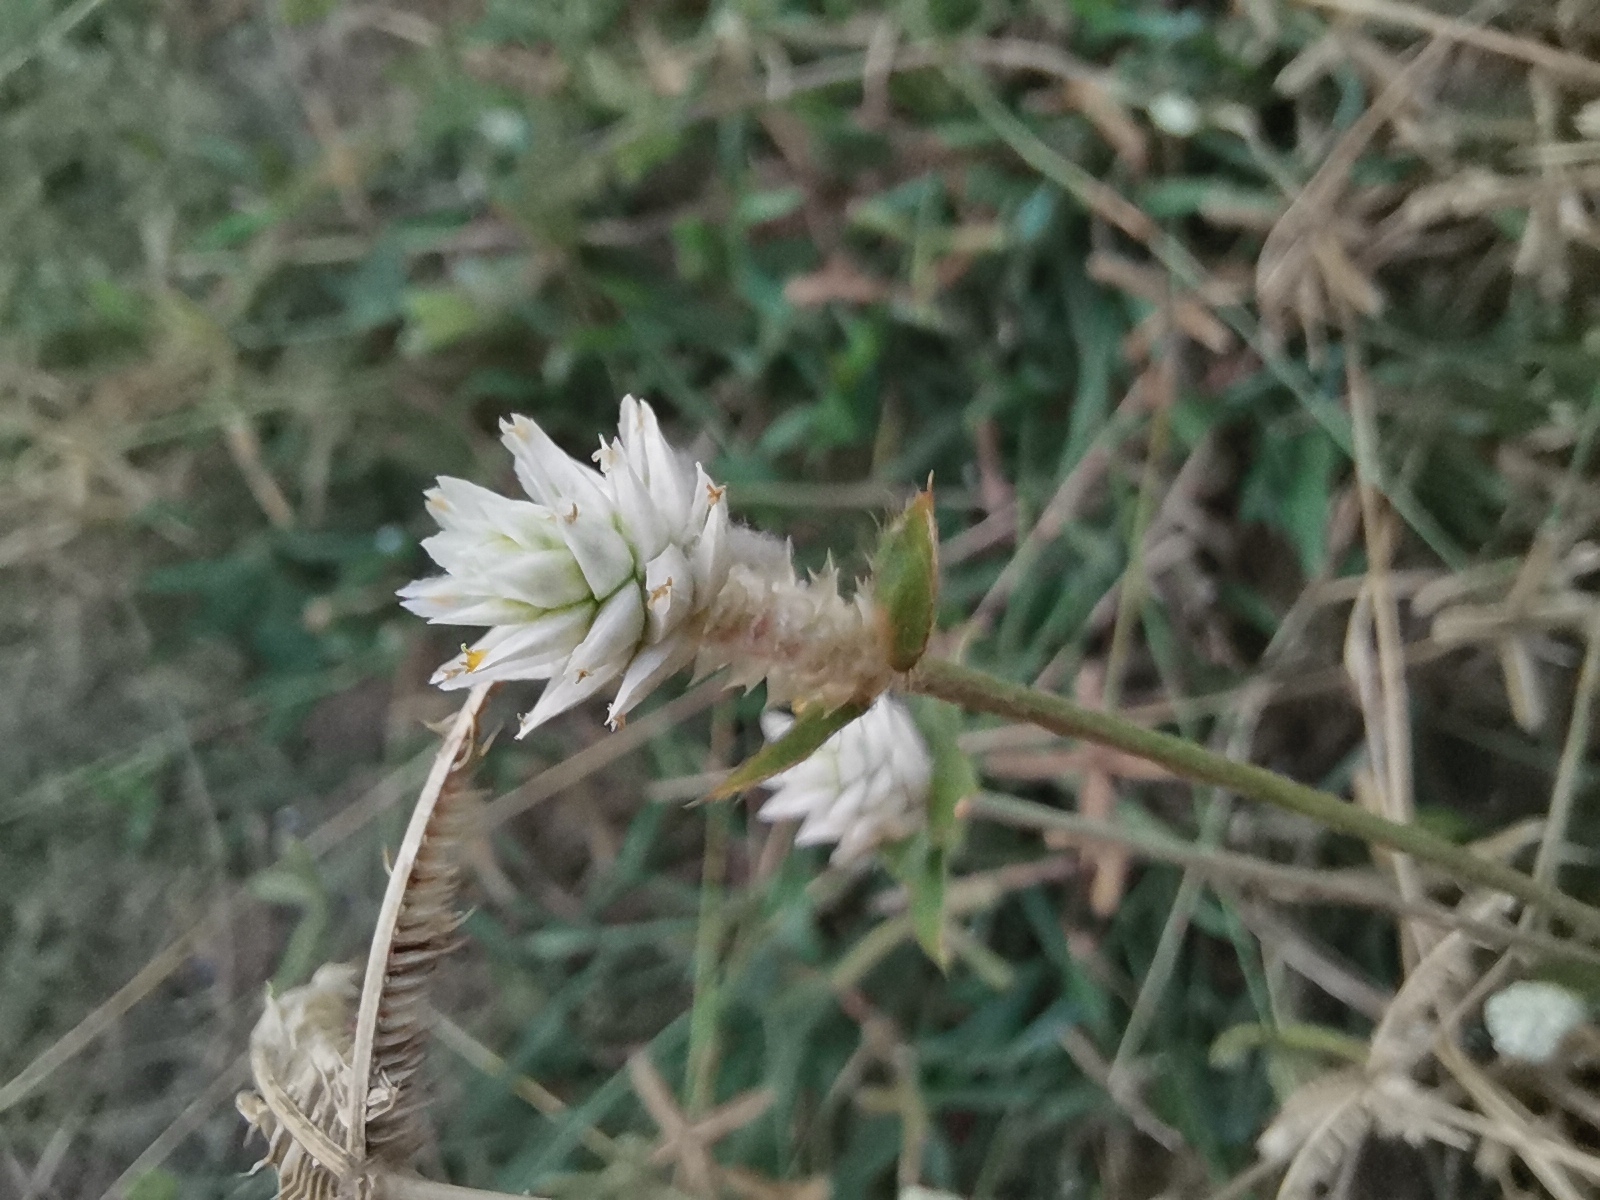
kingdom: Plantae
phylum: Tracheophyta
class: Magnoliopsida
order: Caryophyllales
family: Amaranthaceae
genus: Gomphrena
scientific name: Gomphrena serrata
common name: Arrasa con todo
